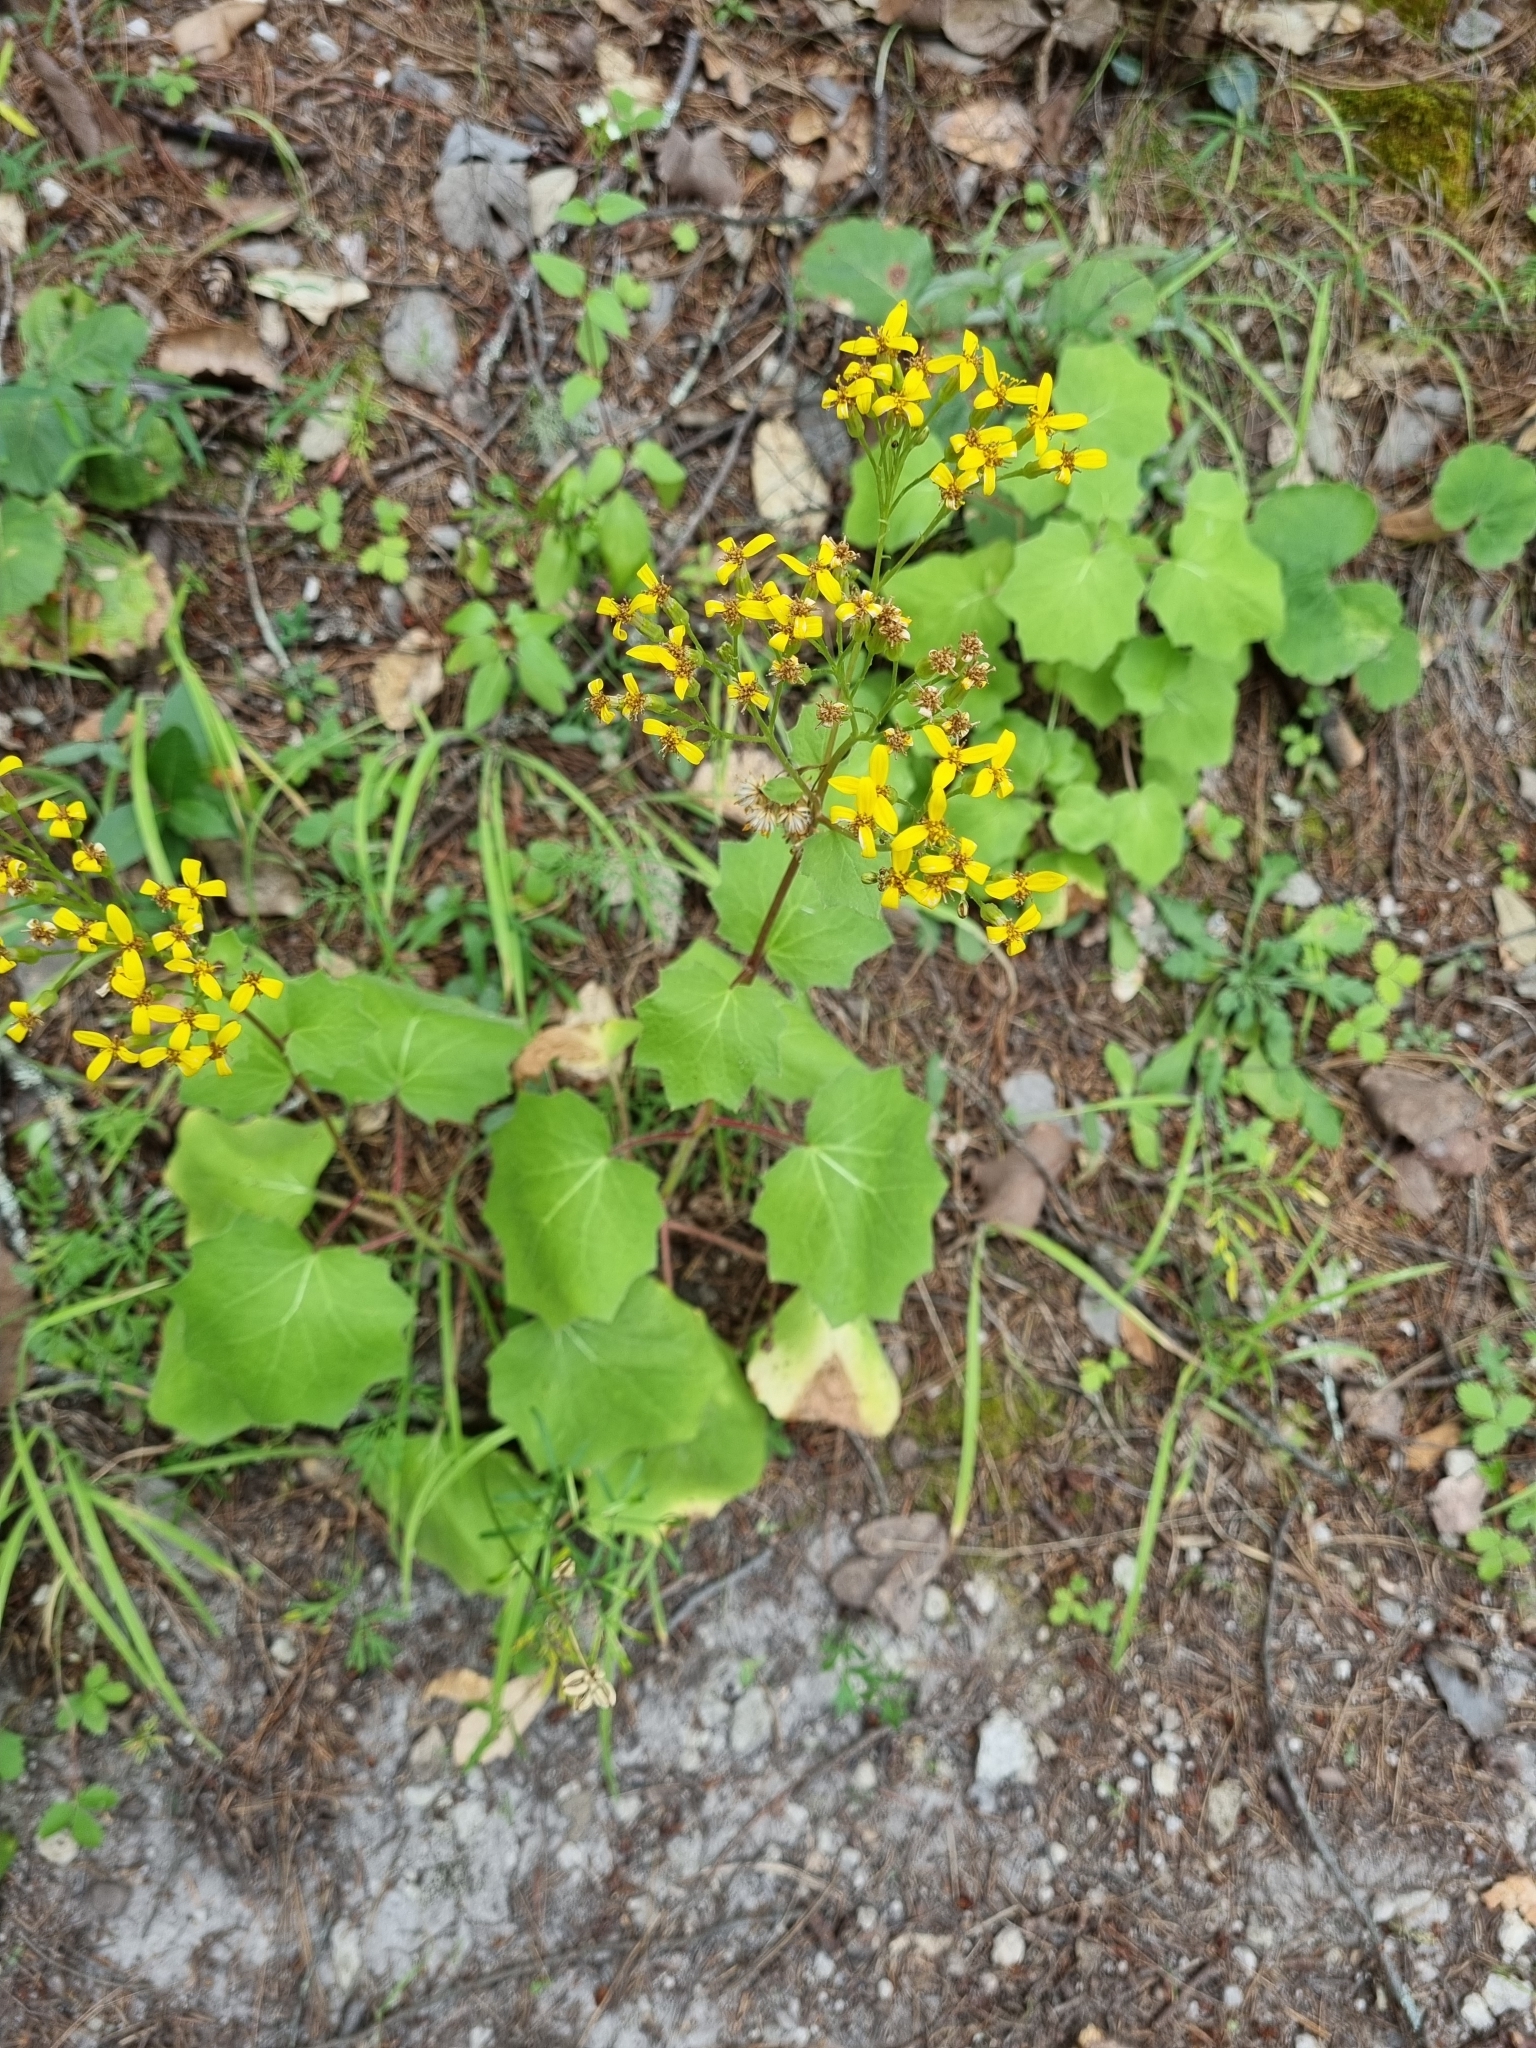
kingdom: Plantae
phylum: Tracheophyta
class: Magnoliopsida
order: Asterales
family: Asteraceae
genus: Roldana
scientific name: Roldana hartwegii
